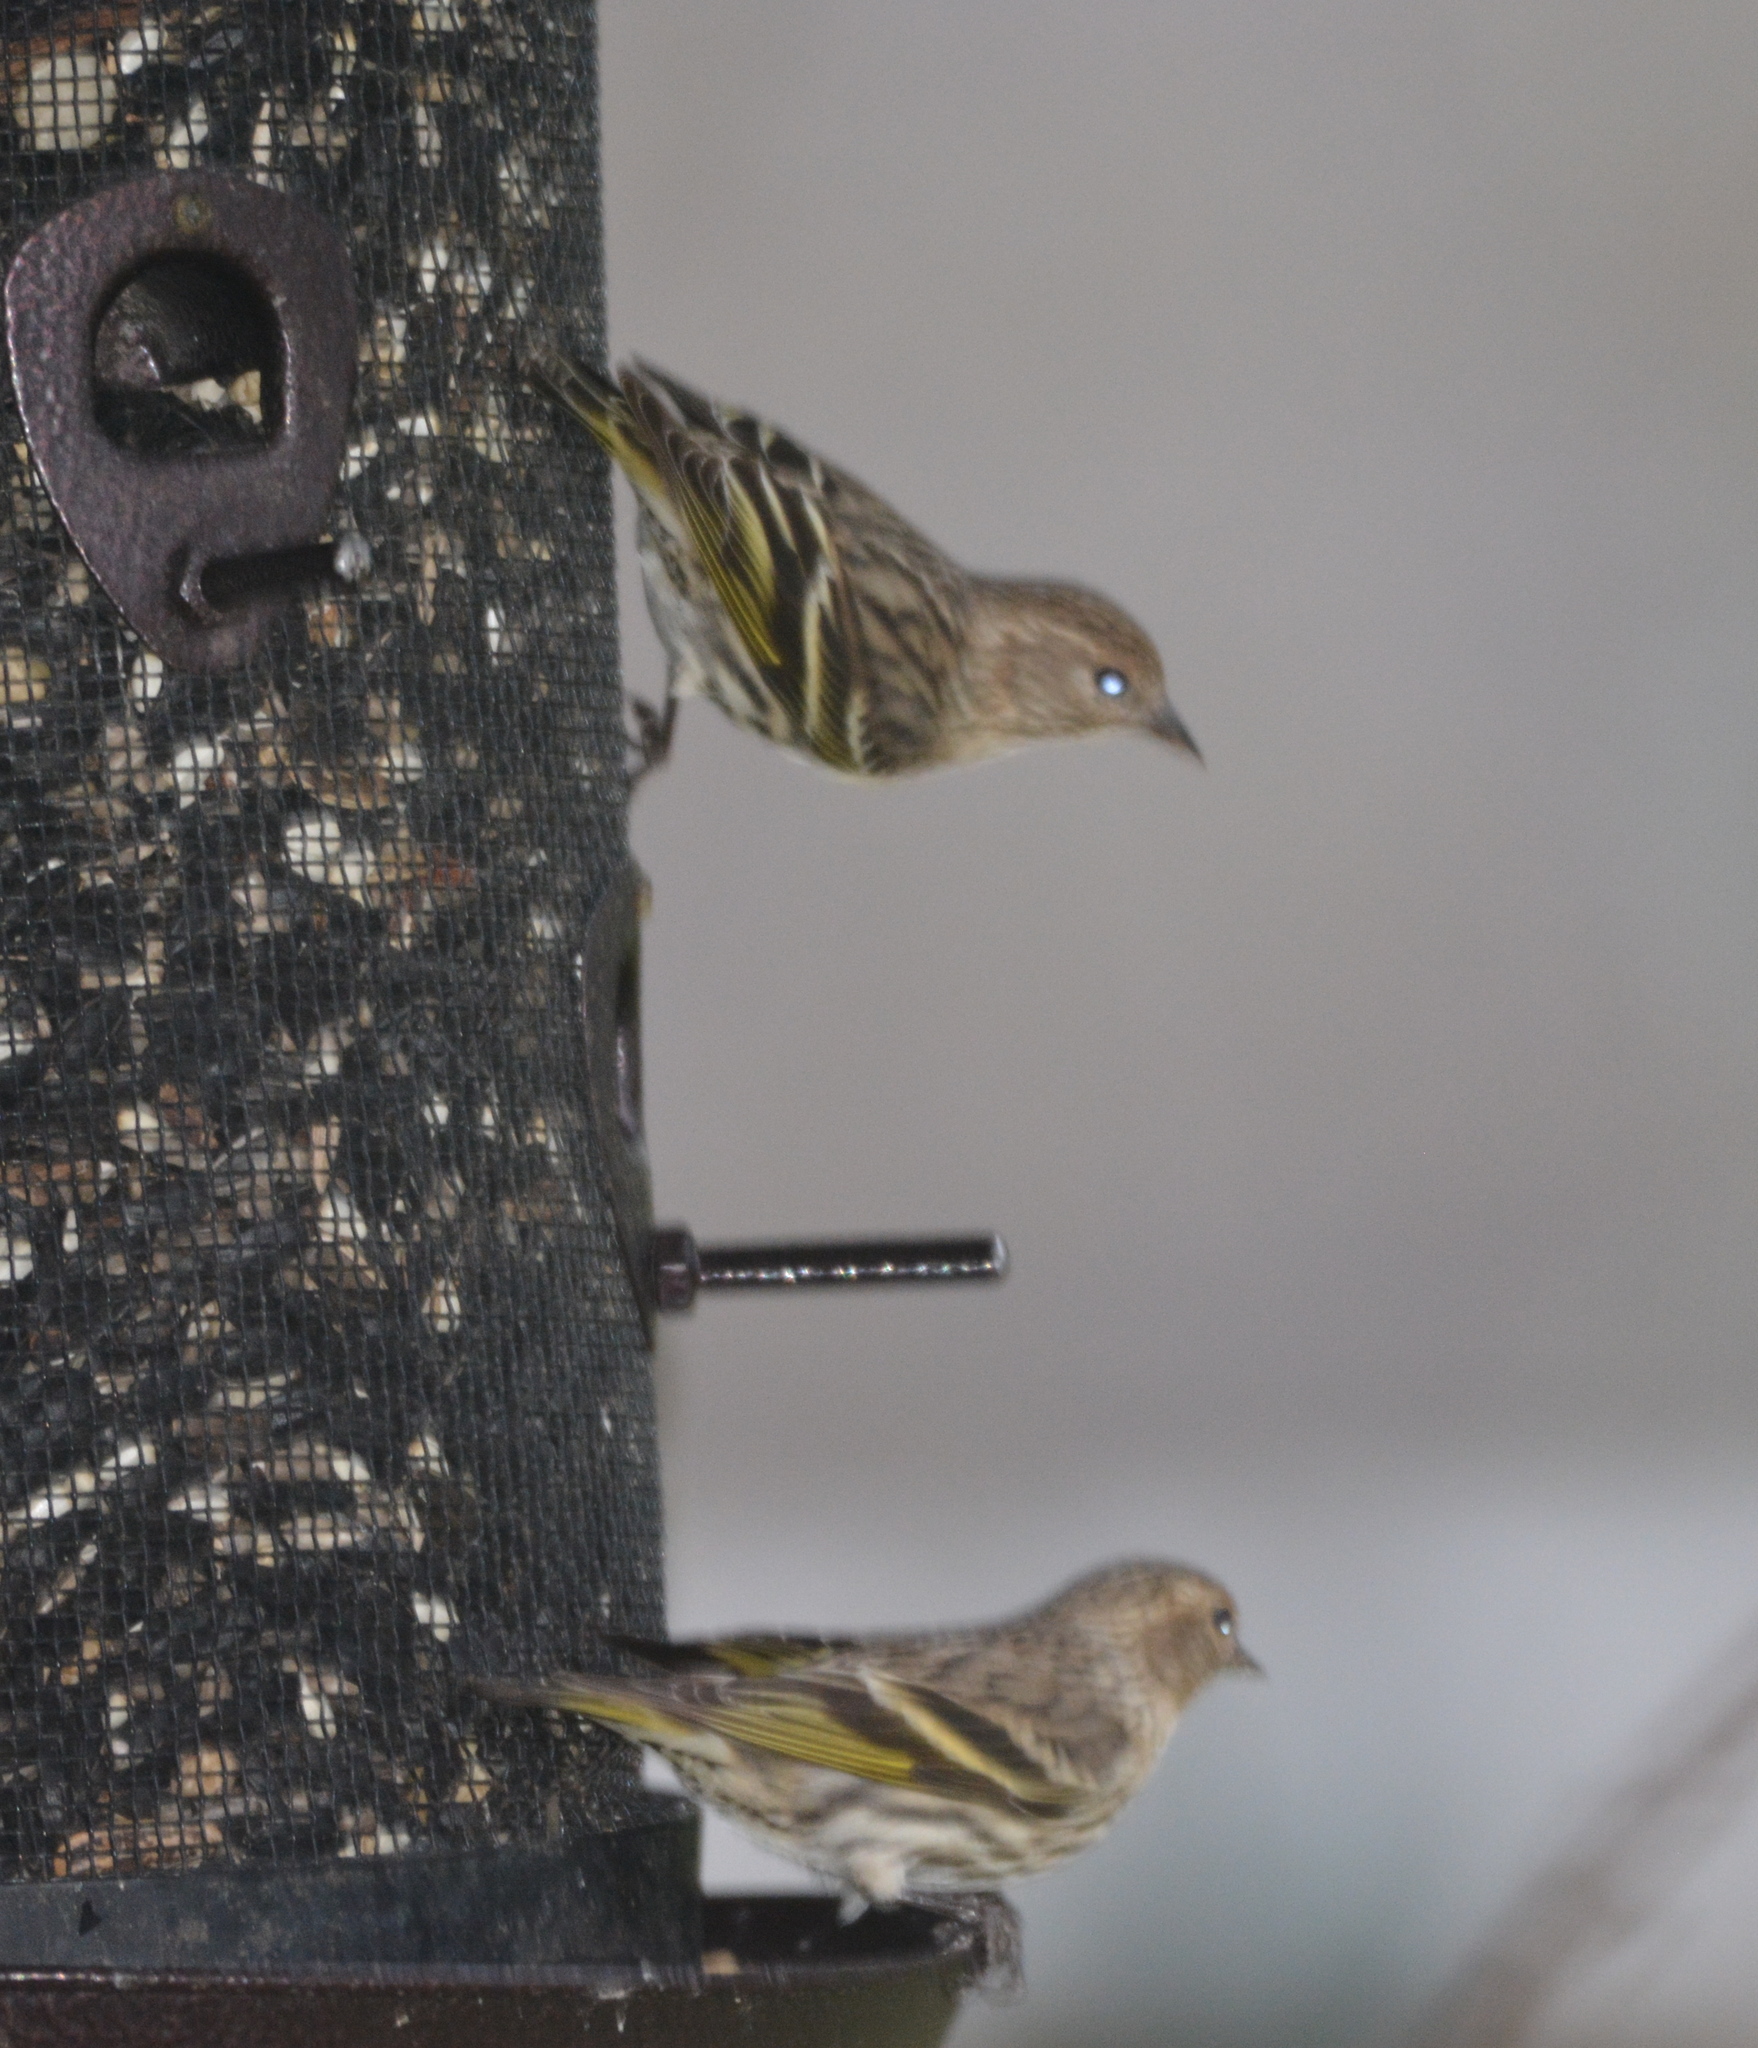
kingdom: Animalia
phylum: Chordata
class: Aves
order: Passeriformes
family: Fringillidae
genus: Spinus
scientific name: Spinus pinus
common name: Pine siskin
